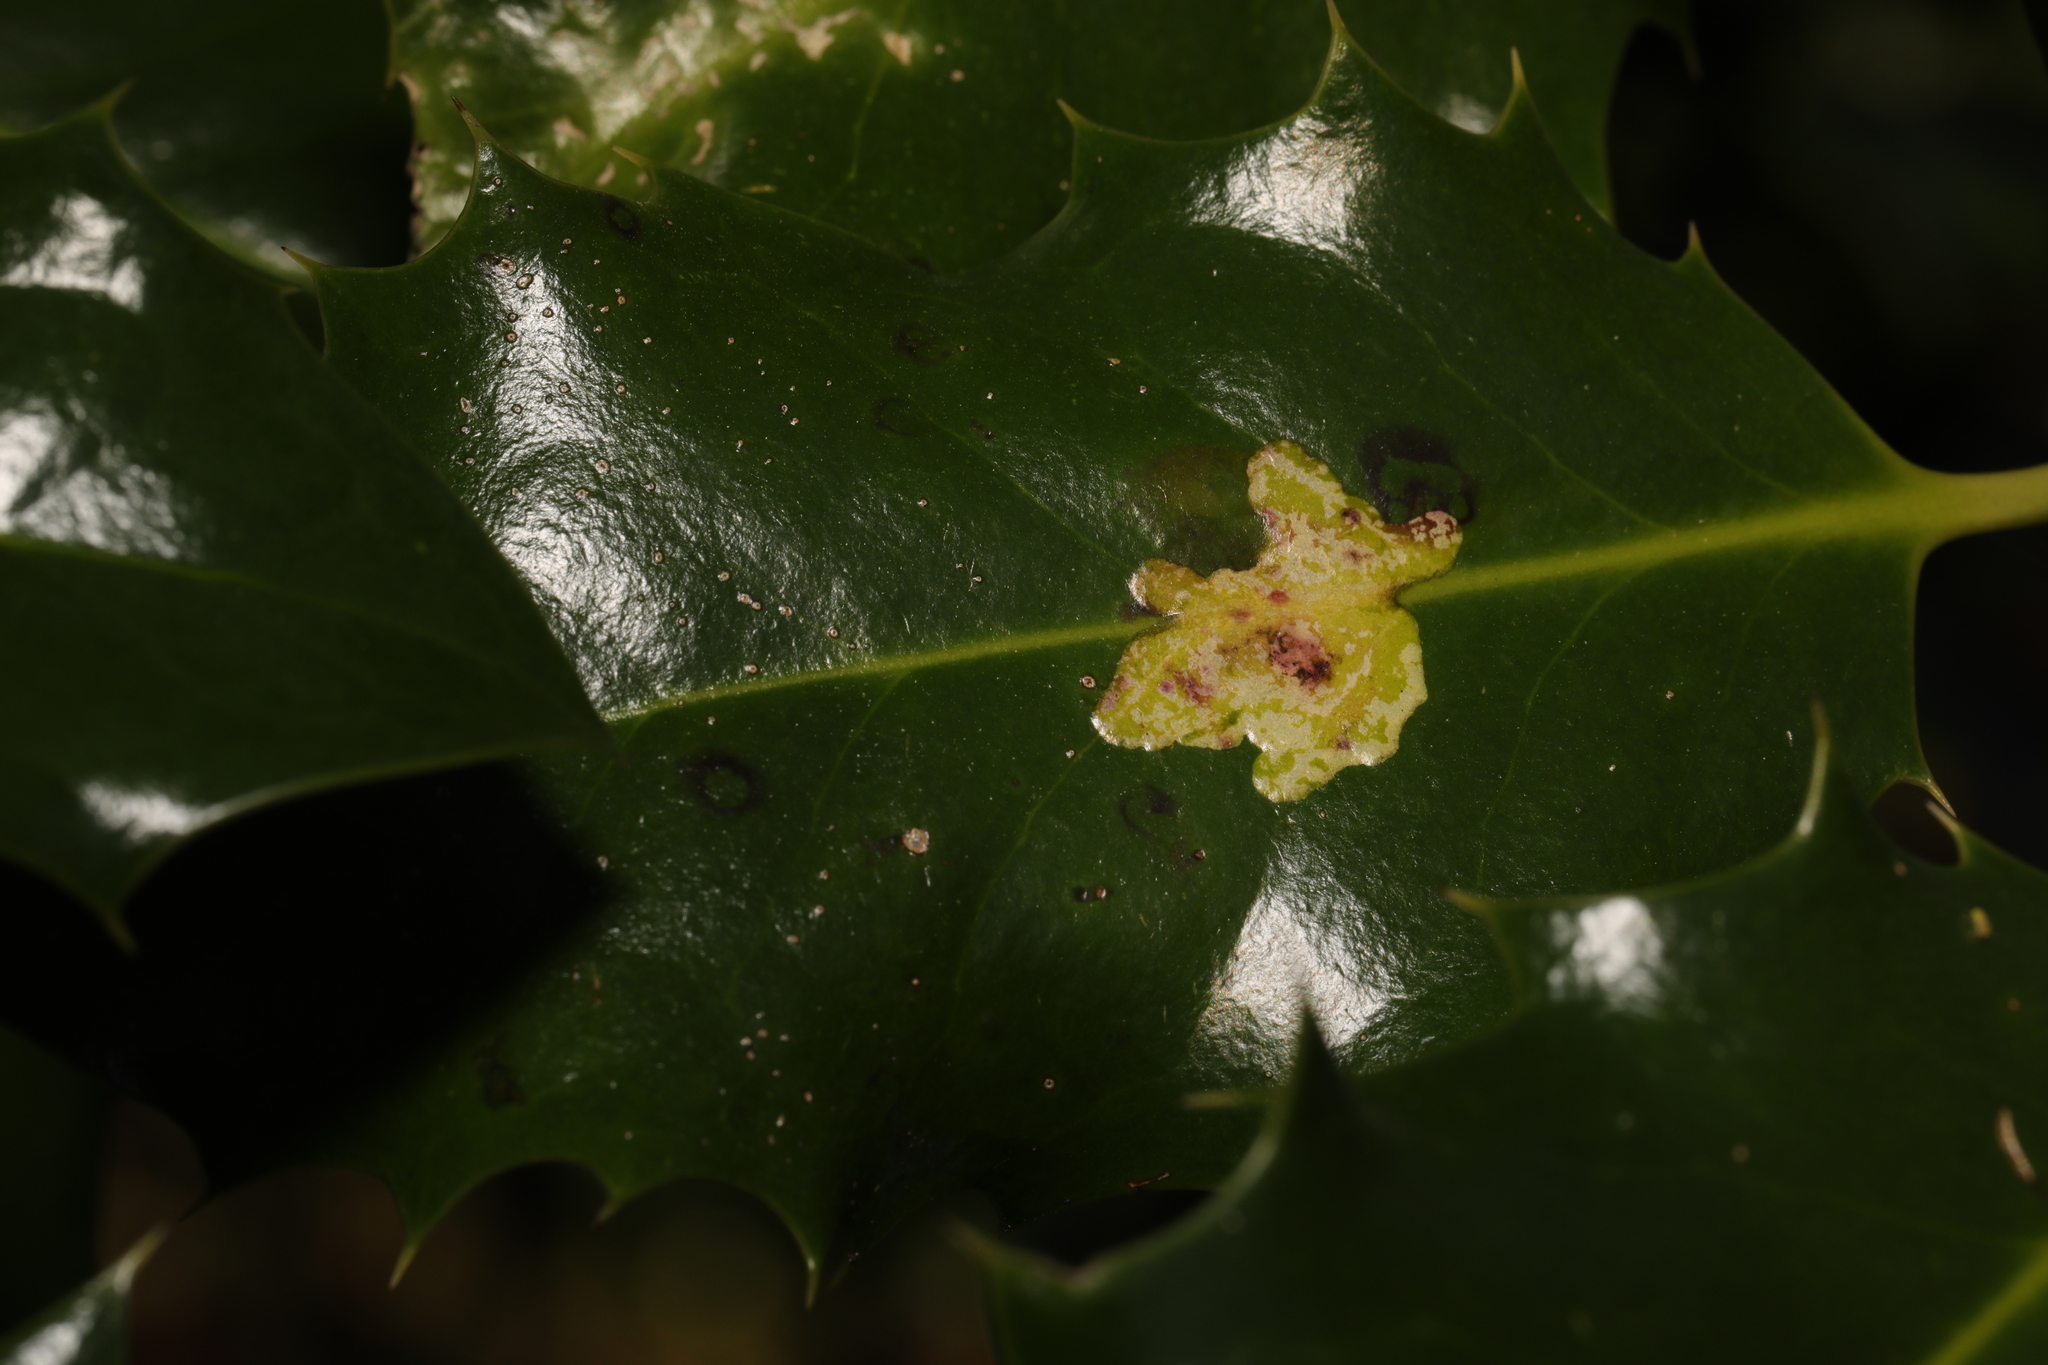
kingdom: Animalia
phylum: Arthropoda
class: Insecta
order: Diptera
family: Agromyzidae
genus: Phytomyza
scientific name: Phytomyza ilicis
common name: Holly leafminer
